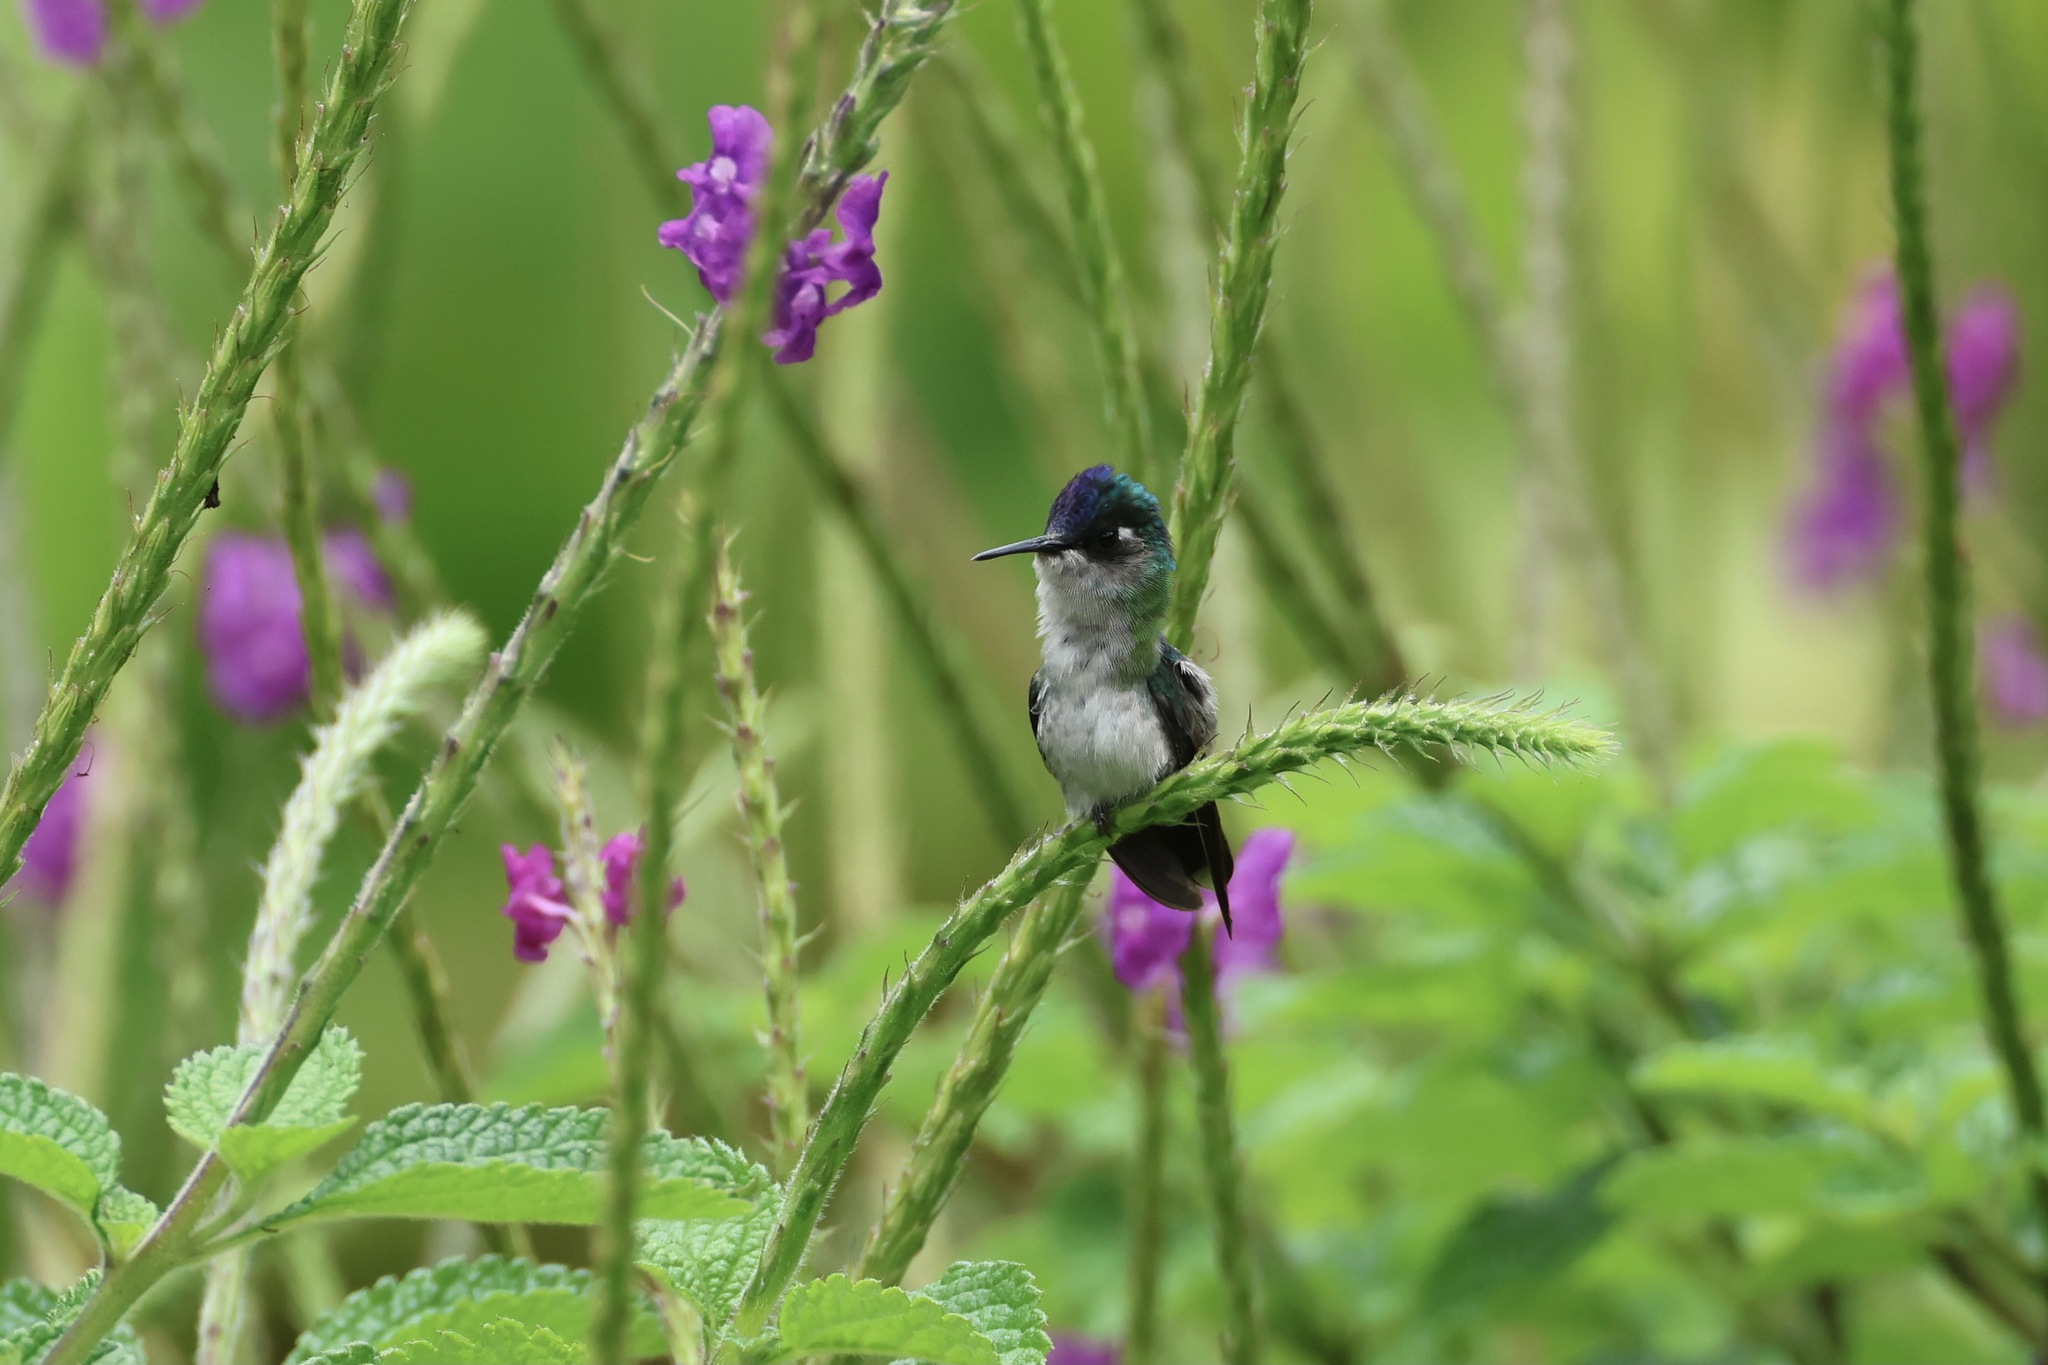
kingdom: Animalia
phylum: Chordata
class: Aves
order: Apodiformes
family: Trochilidae
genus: Klais
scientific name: Klais guimeti
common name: Violet-headed hummingbird
